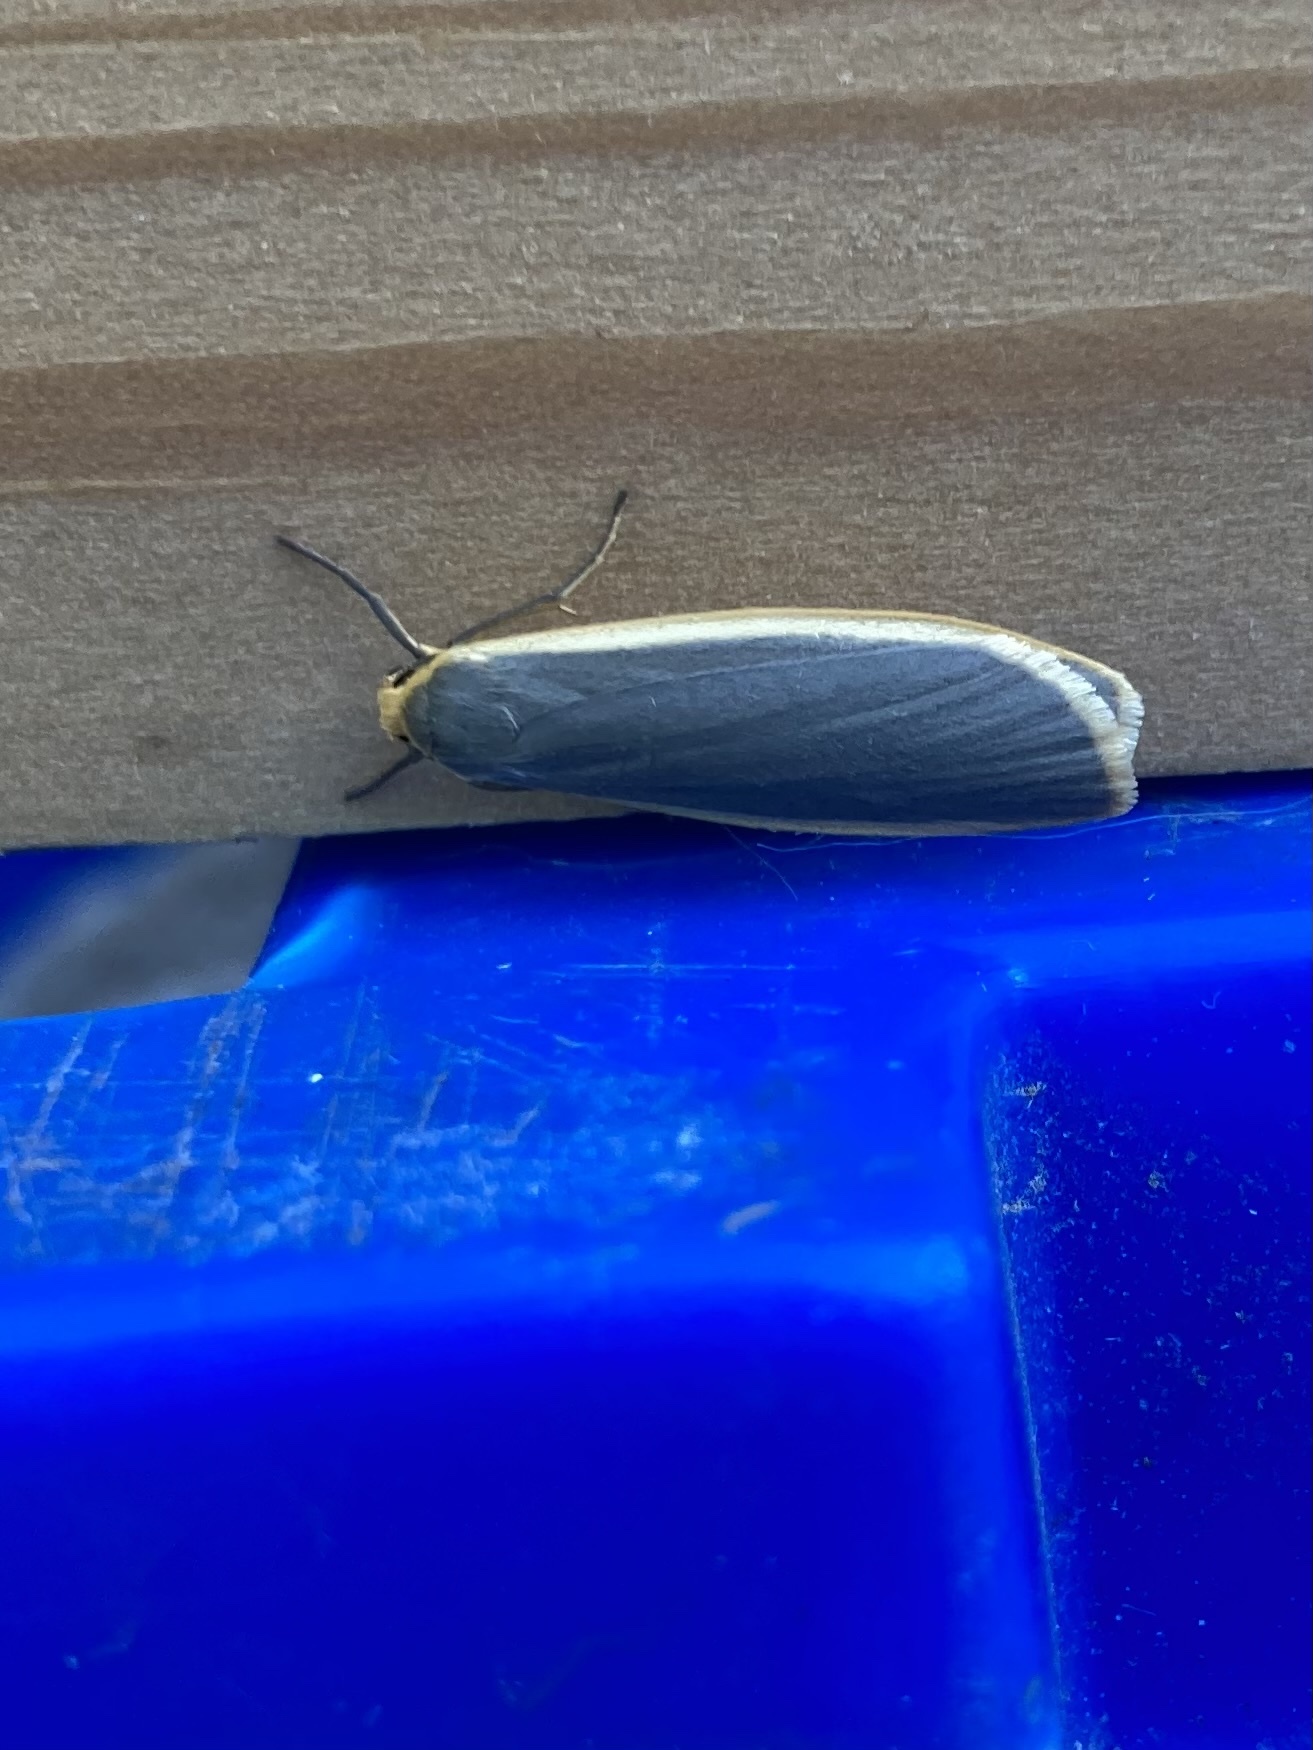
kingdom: Animalia
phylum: Arthropoda
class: Insecta
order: Lepidoptera
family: Erebidae
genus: Nyea
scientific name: Nyea lurideola
